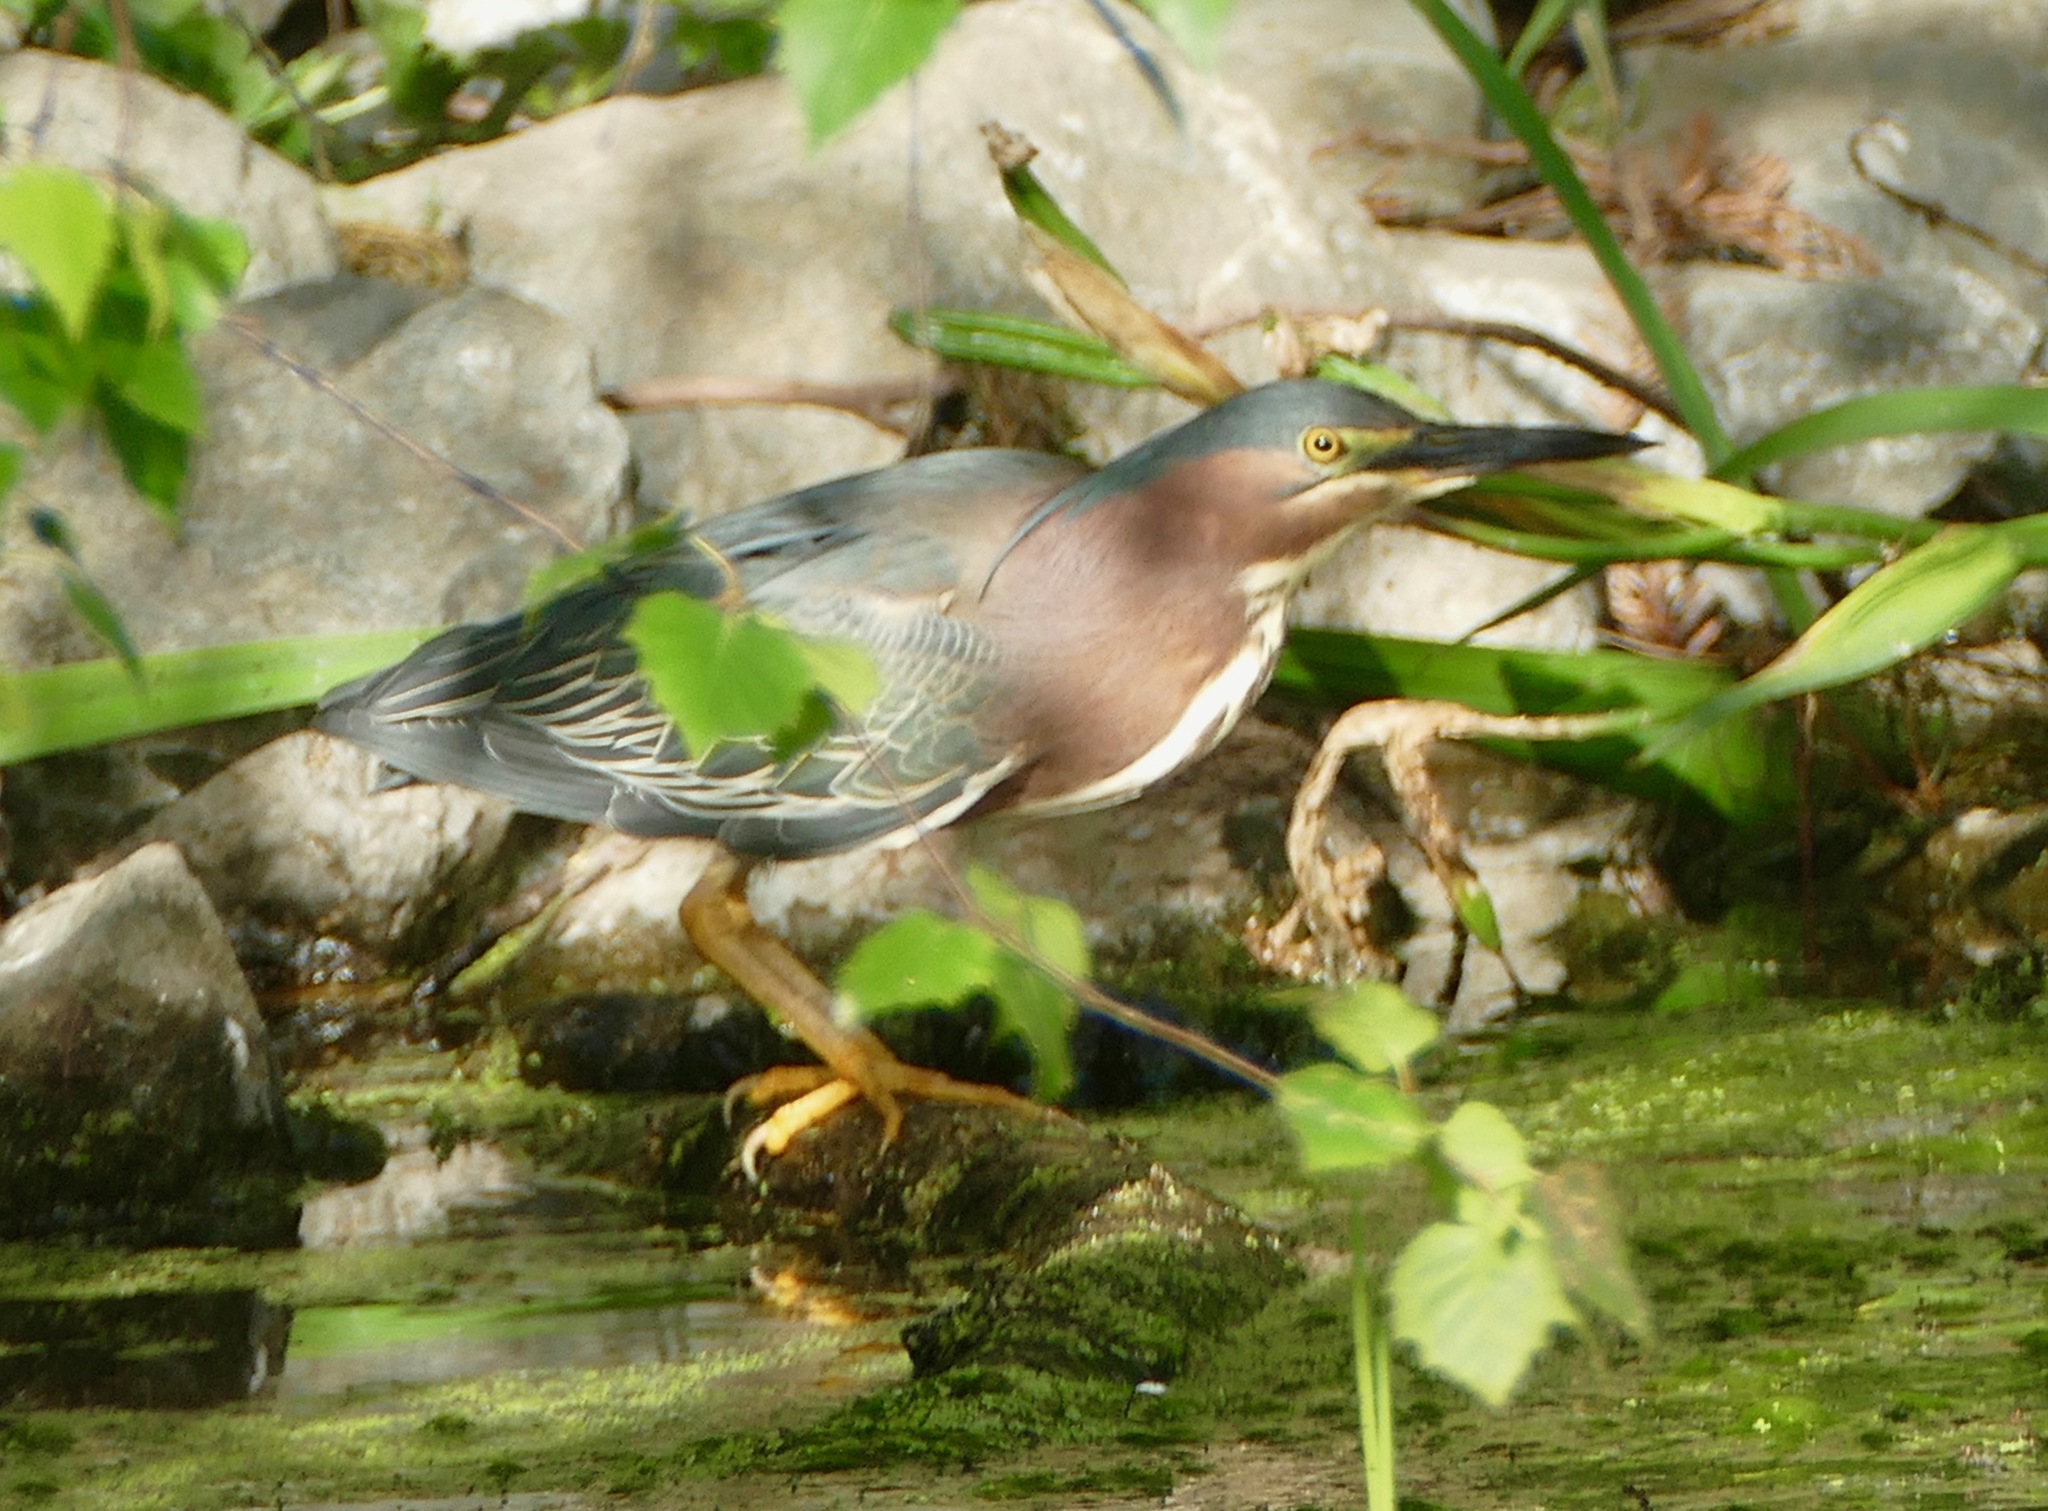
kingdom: Animalia
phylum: Chordata
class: Aves
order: Pelecaniformes
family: Ardeidae
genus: Butorides
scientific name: Butorides virescens
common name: Green heron
